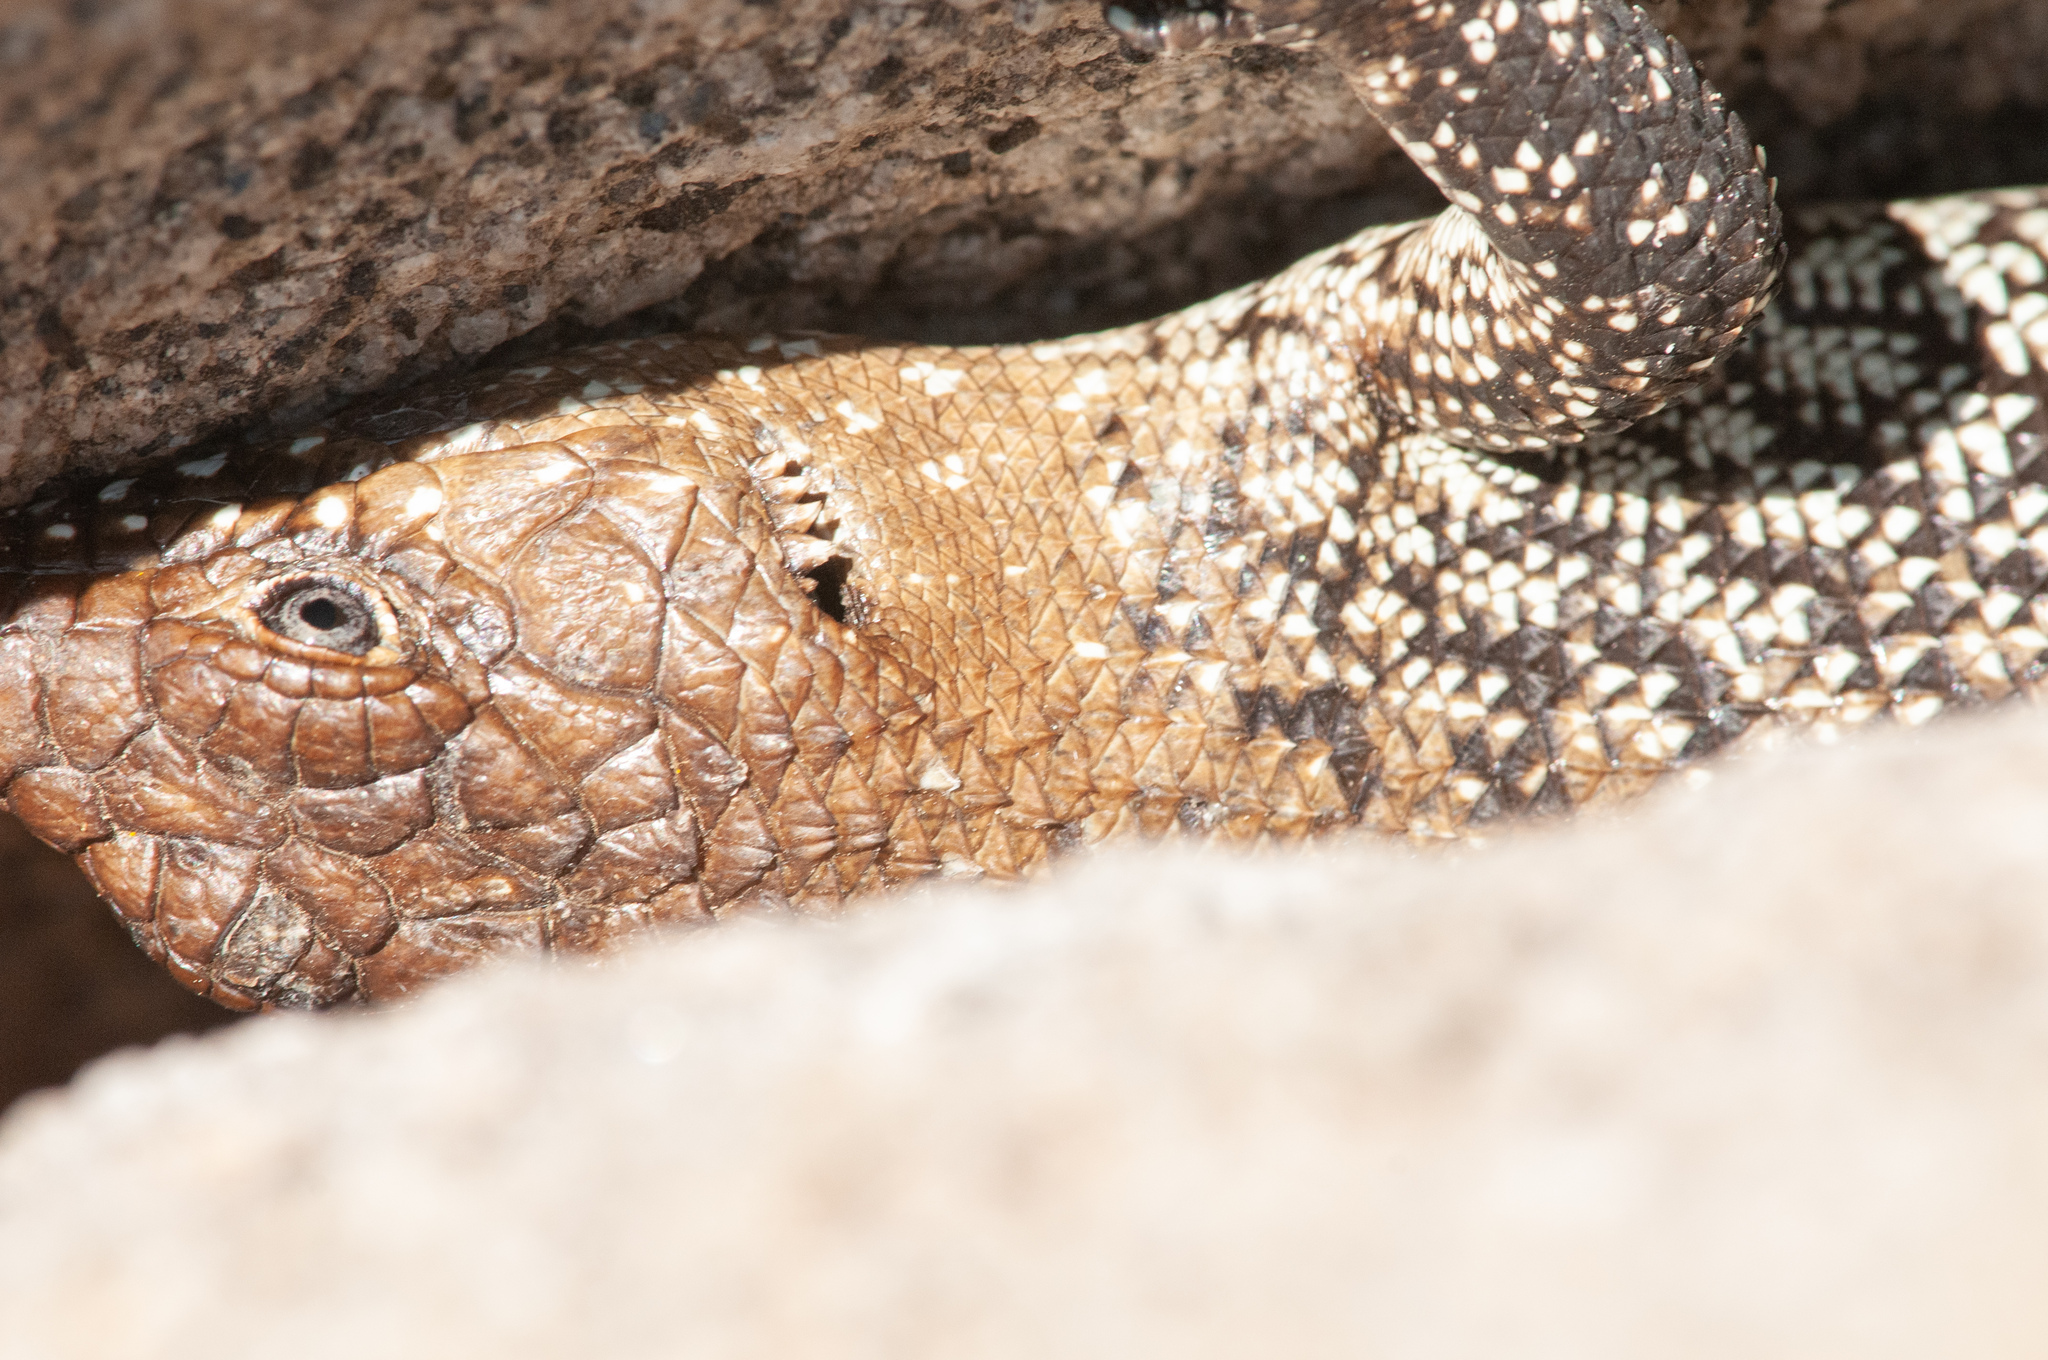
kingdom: Animalia
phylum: Chordata
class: Squamata
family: Scincidae
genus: Egernia
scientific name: Egernia cunninghami
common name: Cunningham's skink
